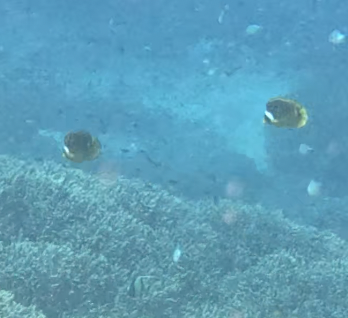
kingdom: Animalia
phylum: Chordata
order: Perciformes
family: Chaetodontidae
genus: Chaetodon
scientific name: Chaetodon lunula
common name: Raccoon butterflyfish
